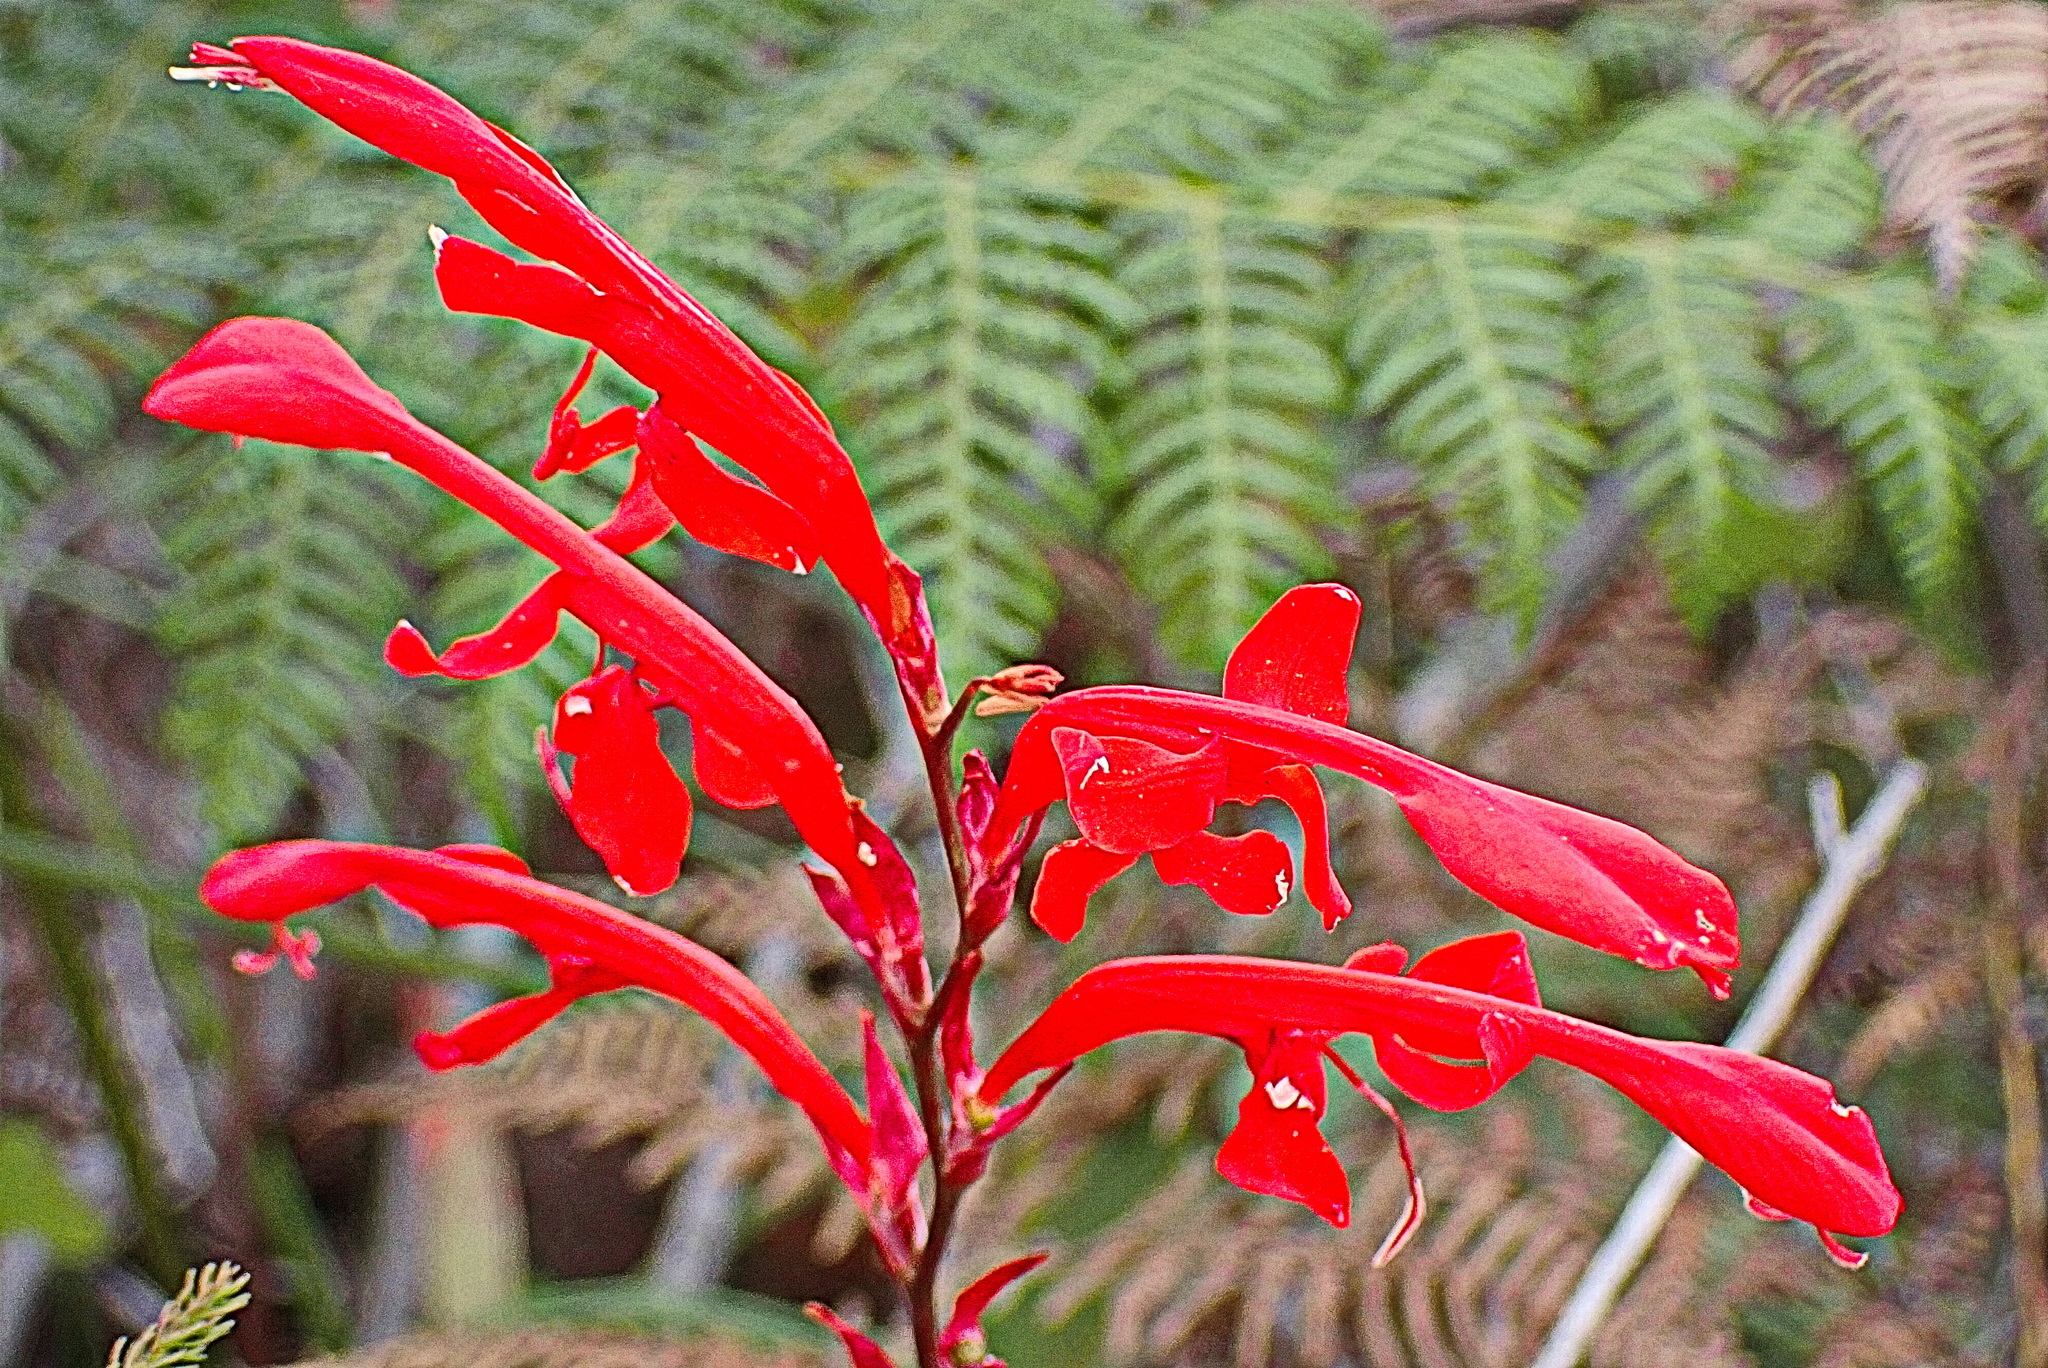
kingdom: Plantae
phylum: Tracheophyta
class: Liliopsida
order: Asparagales
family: Iridaceae
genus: Tritoniopsis
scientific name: Tritoniopsis caffra
